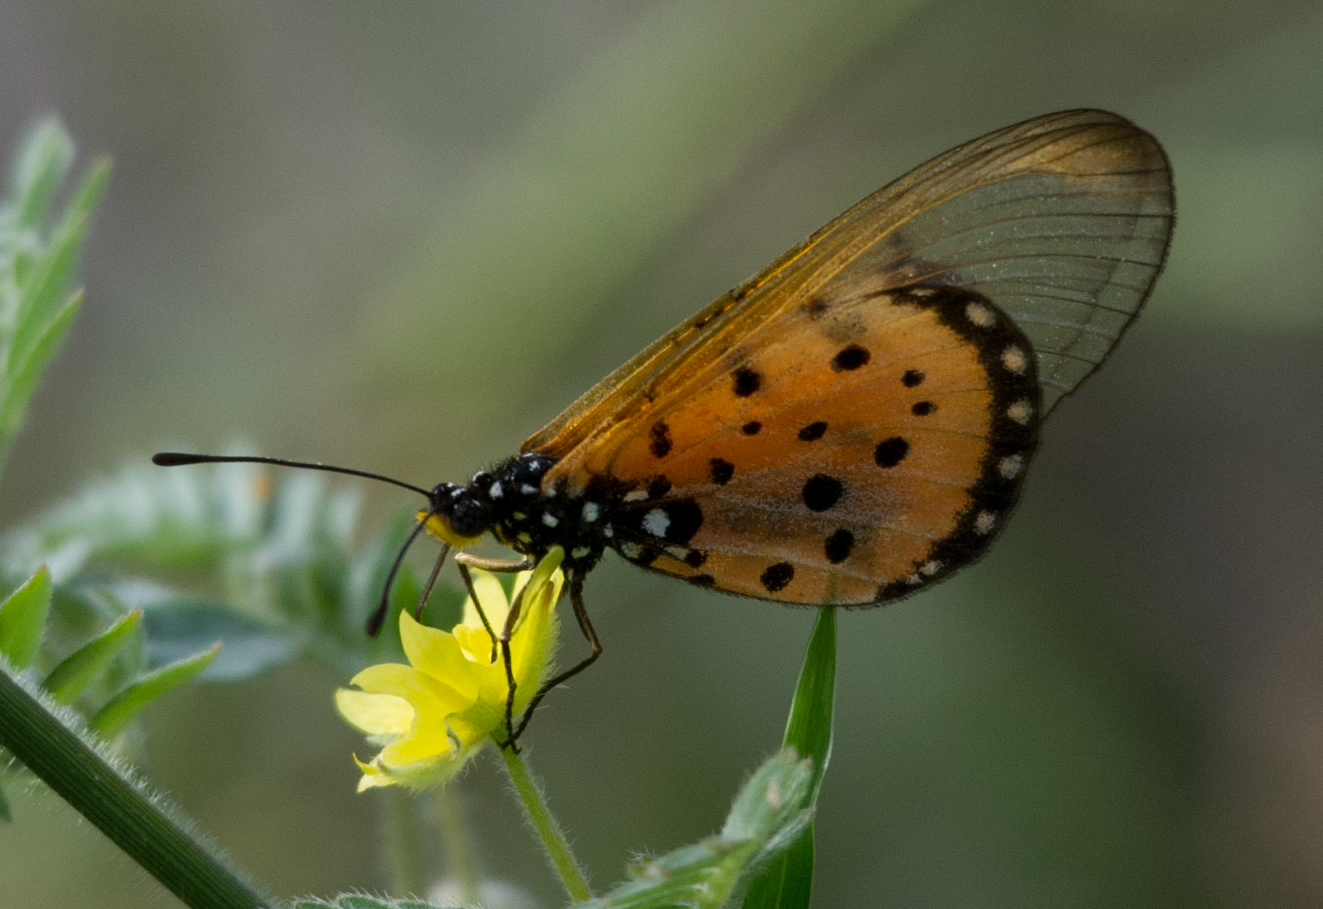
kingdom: Animalia
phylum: Arthropoda
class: Insecta
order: Lepidoptera
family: Nymphalidae
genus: Acraea
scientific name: Acraea neobule
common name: Dancing acraea
